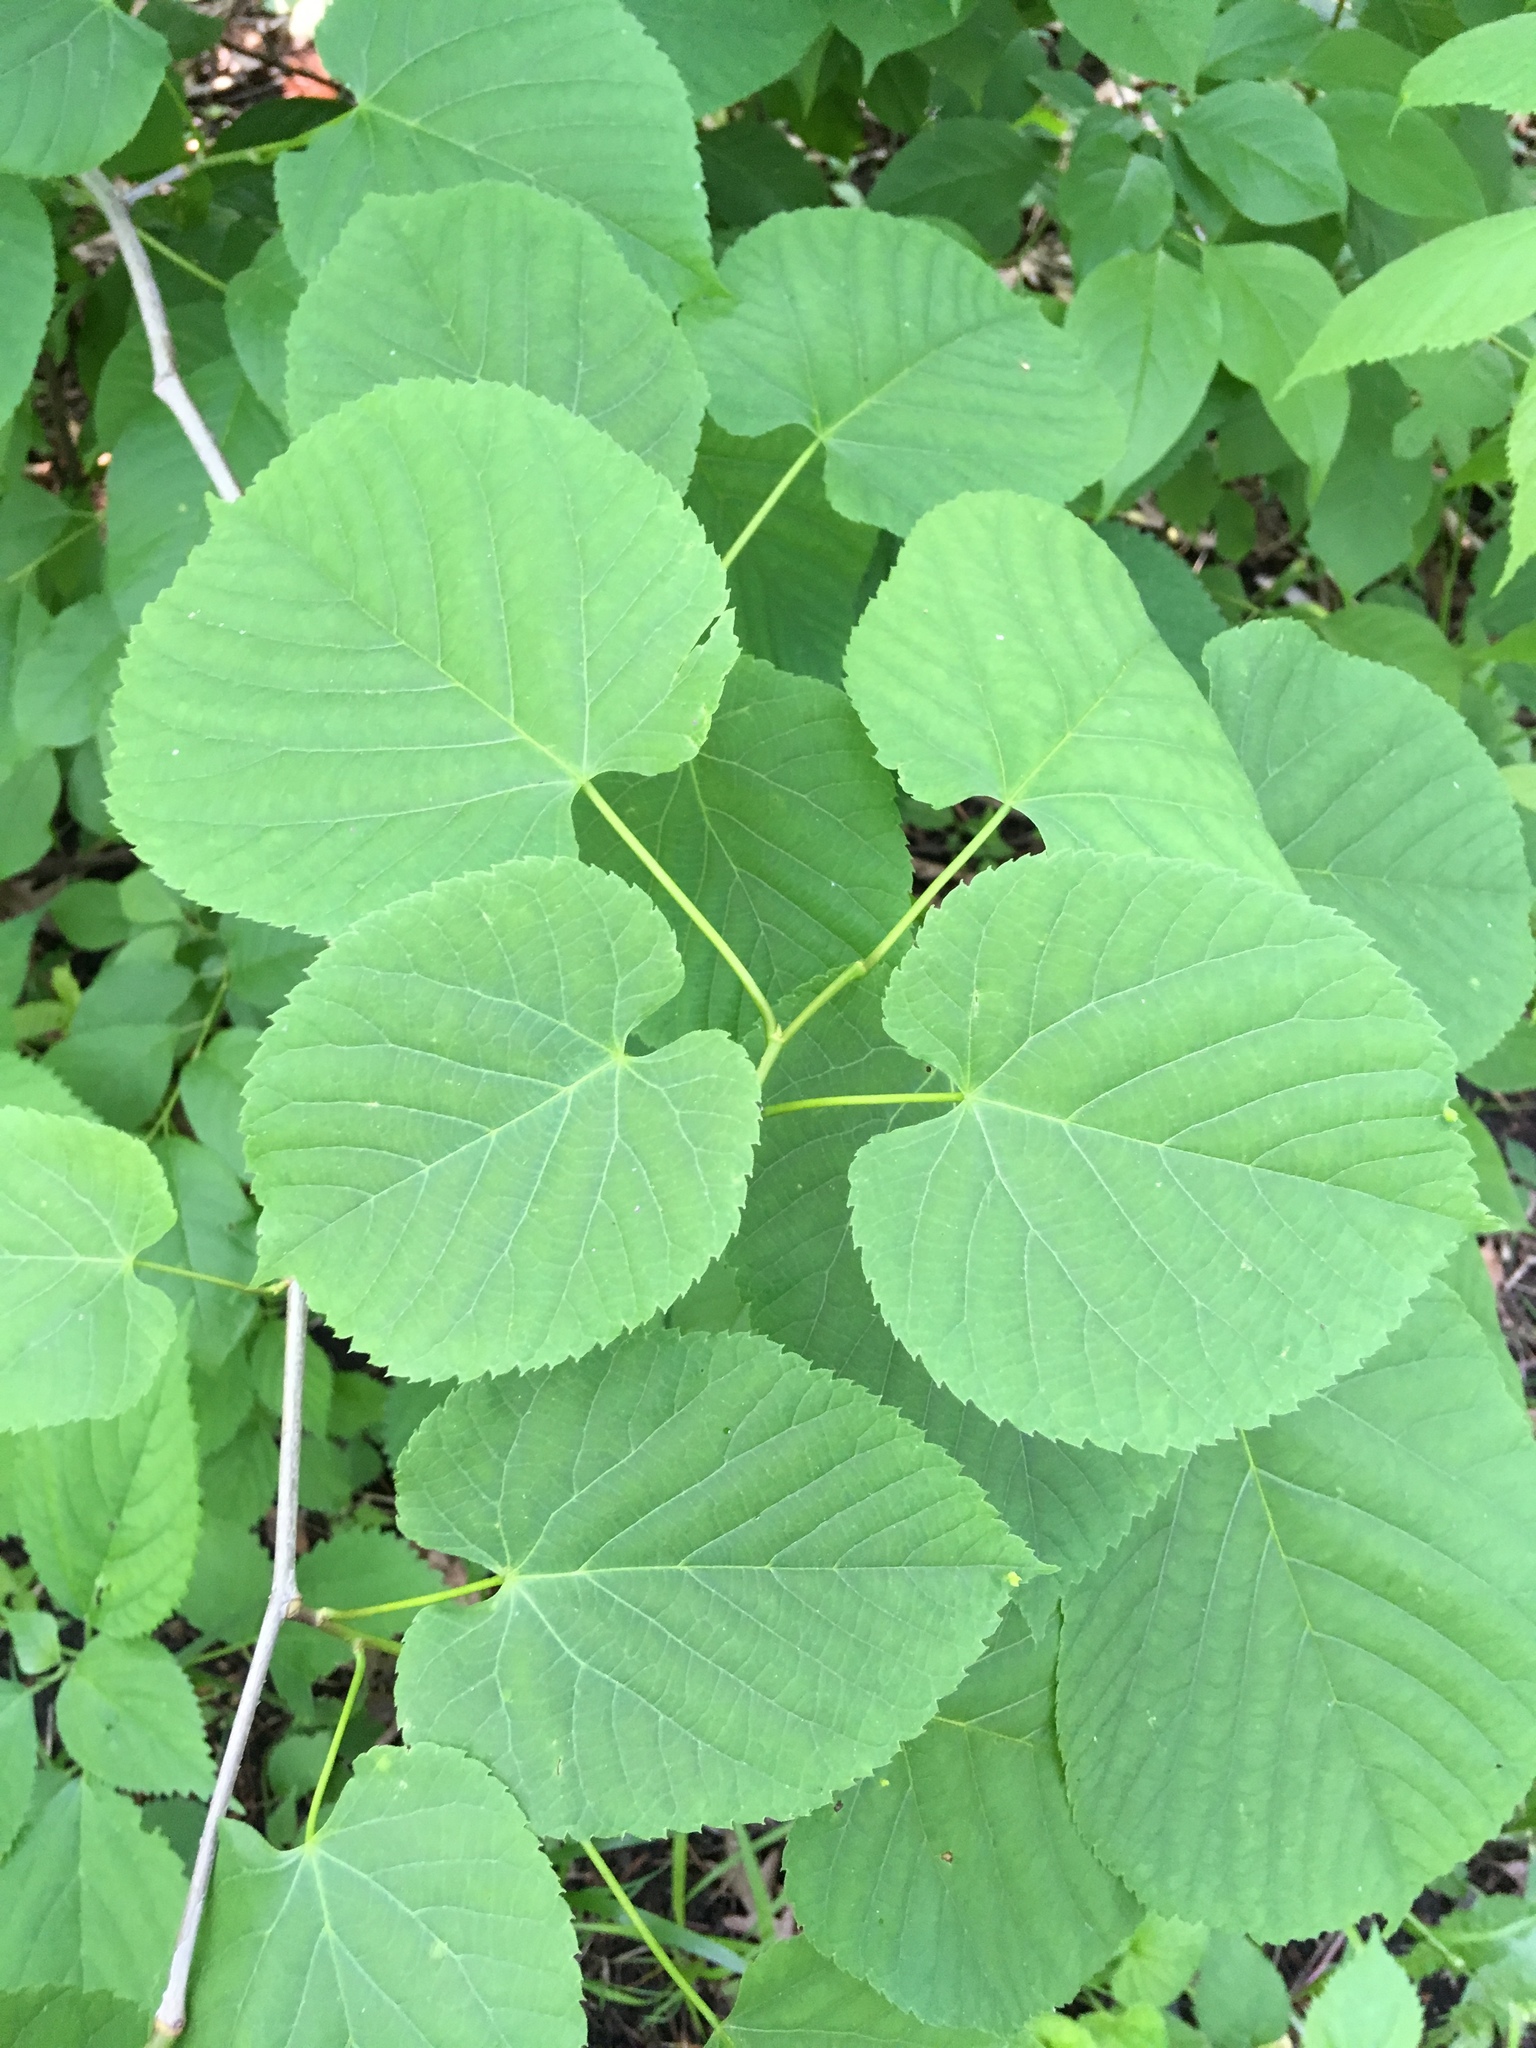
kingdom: Plantae
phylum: Tracheophyta
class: Magnoliopsida
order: Malvales
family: Malvaceae
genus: Tilia
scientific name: Tilia americana
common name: Basswood
